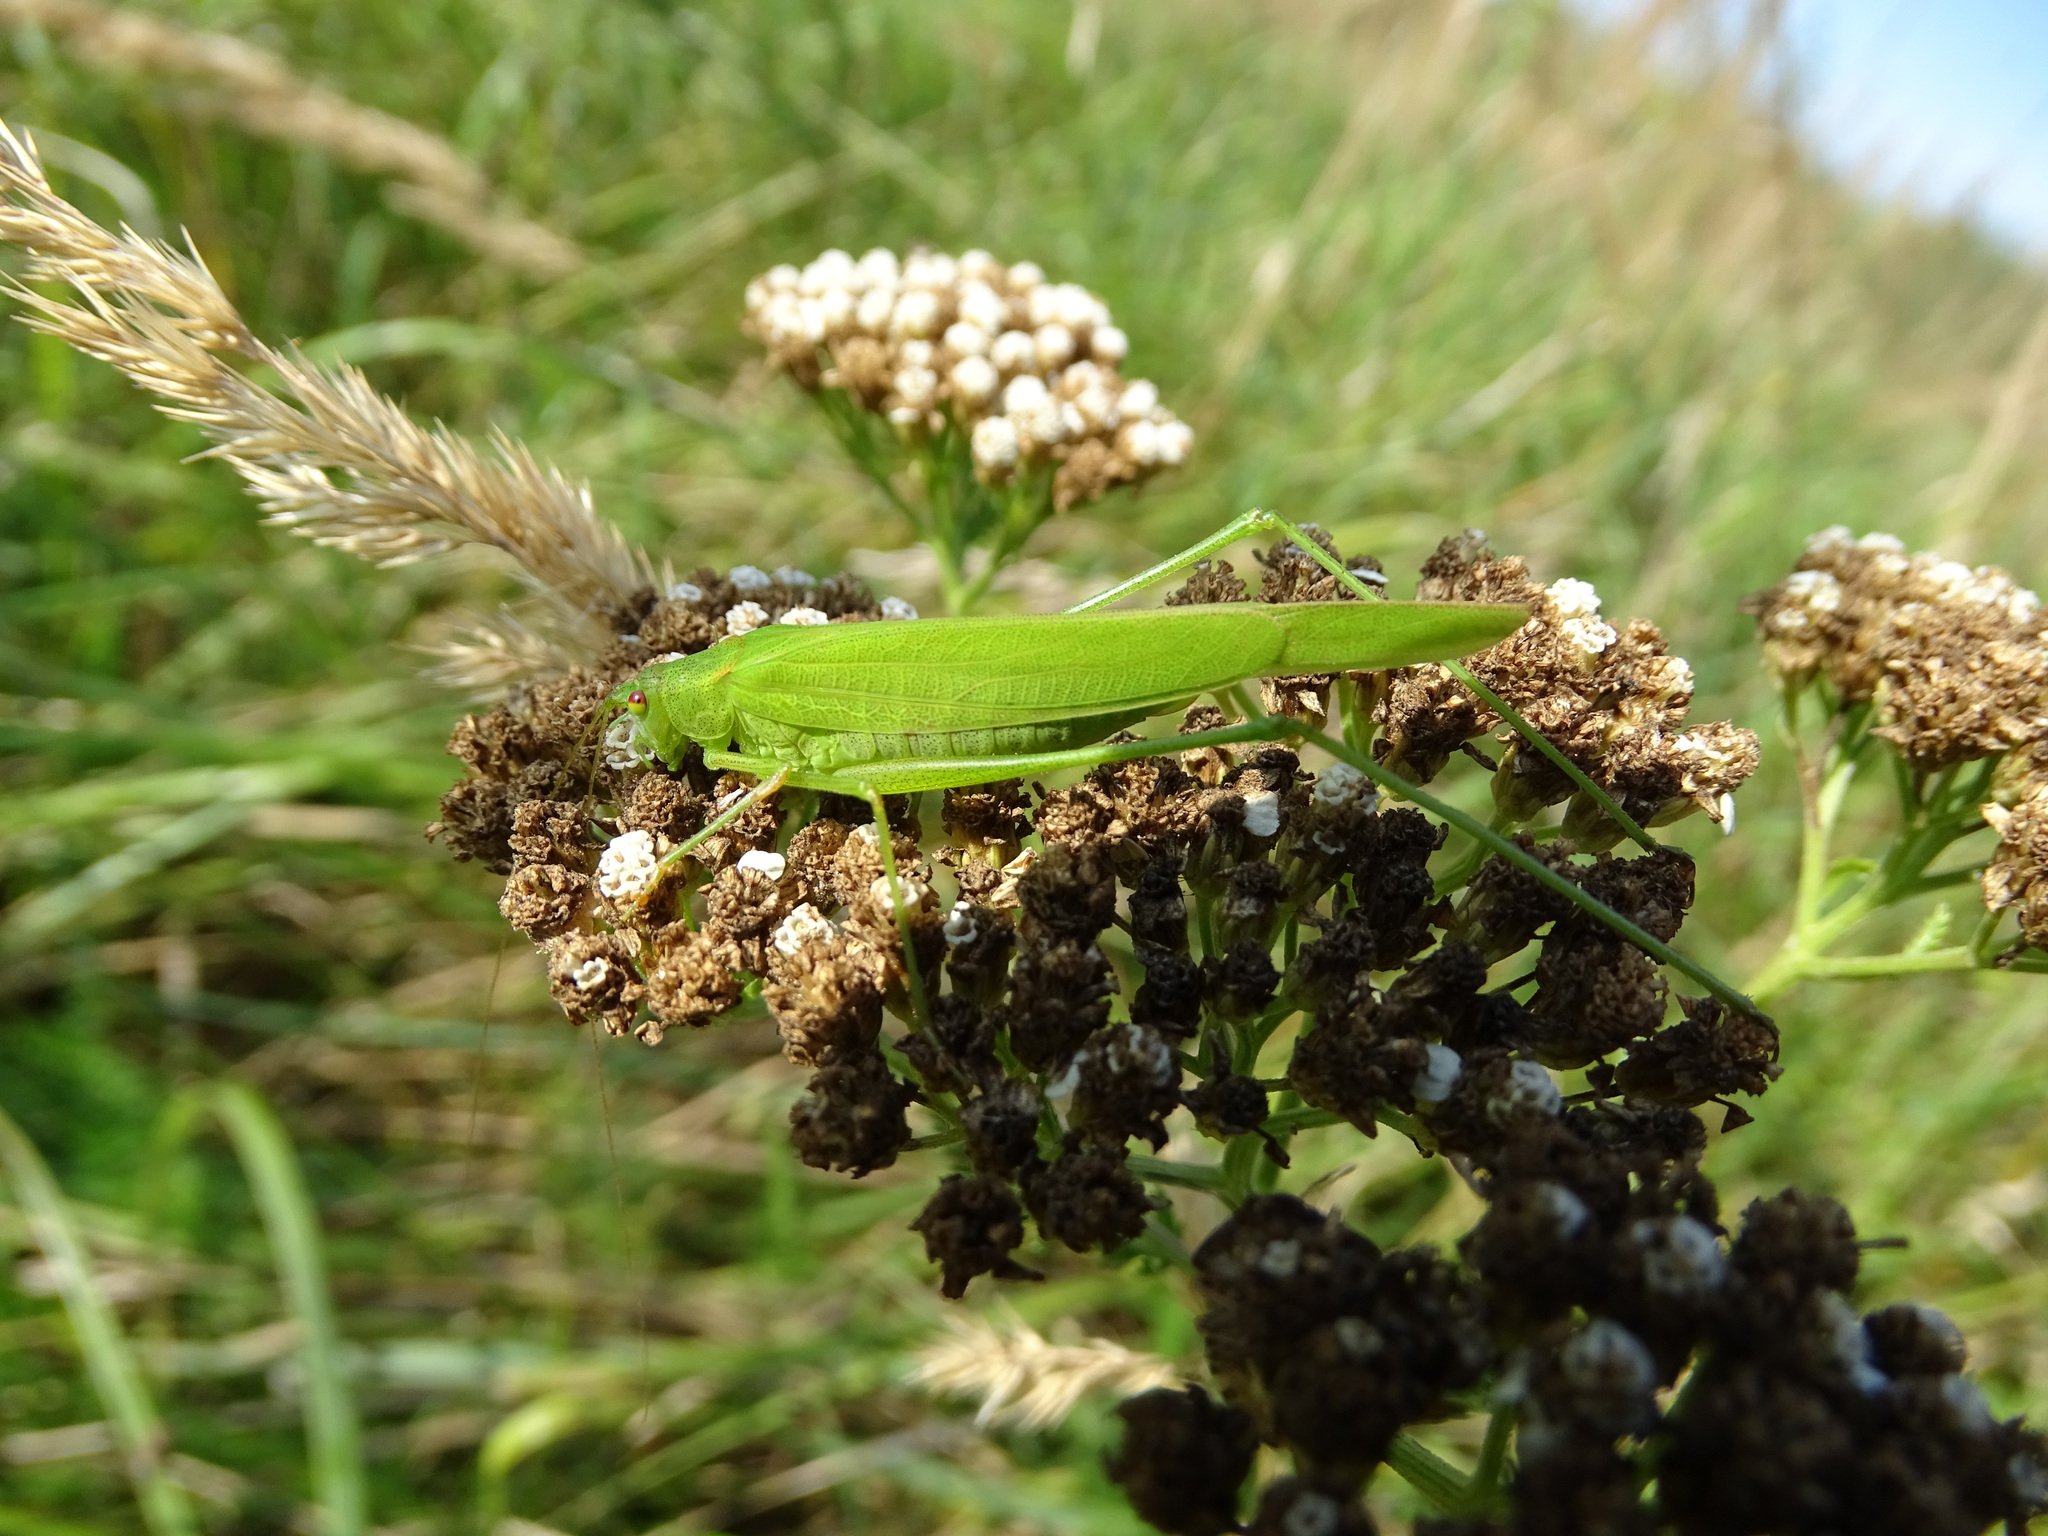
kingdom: Animalia
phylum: Arthropoda
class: Insecta
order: Orthoptera
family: Tettigoniidae
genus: Phaneroptera
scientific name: Phaneroptera falcata
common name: Sickle-bearing bush-cricket
